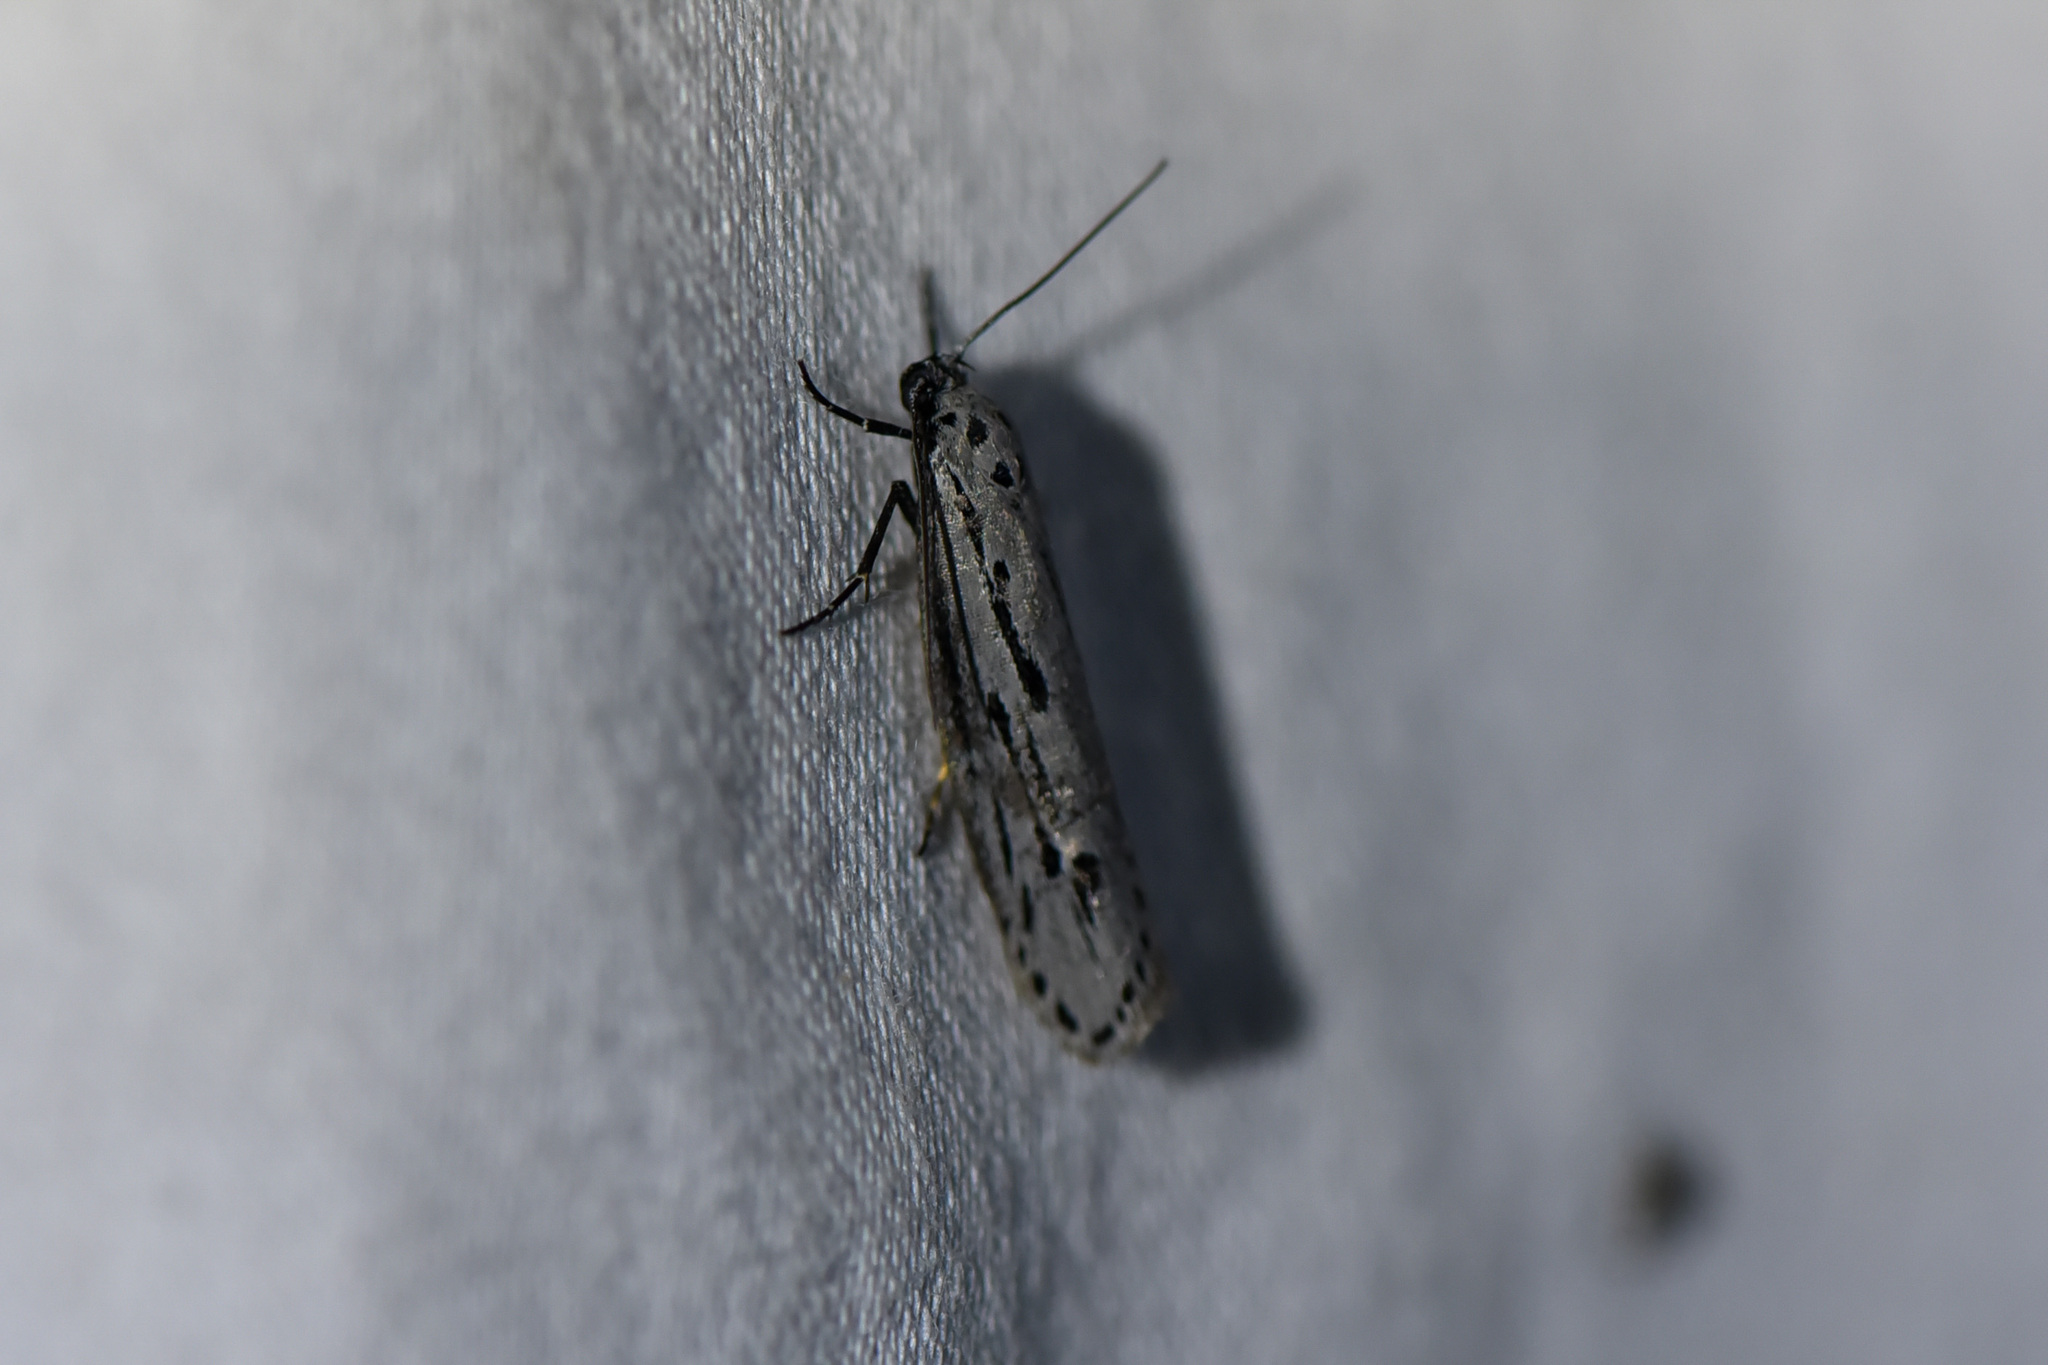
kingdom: Animalia
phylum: Arthropoda
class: Insecta
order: Lepidoptera
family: Ethmiidae
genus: Ethmia
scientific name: Ethmia monticola
